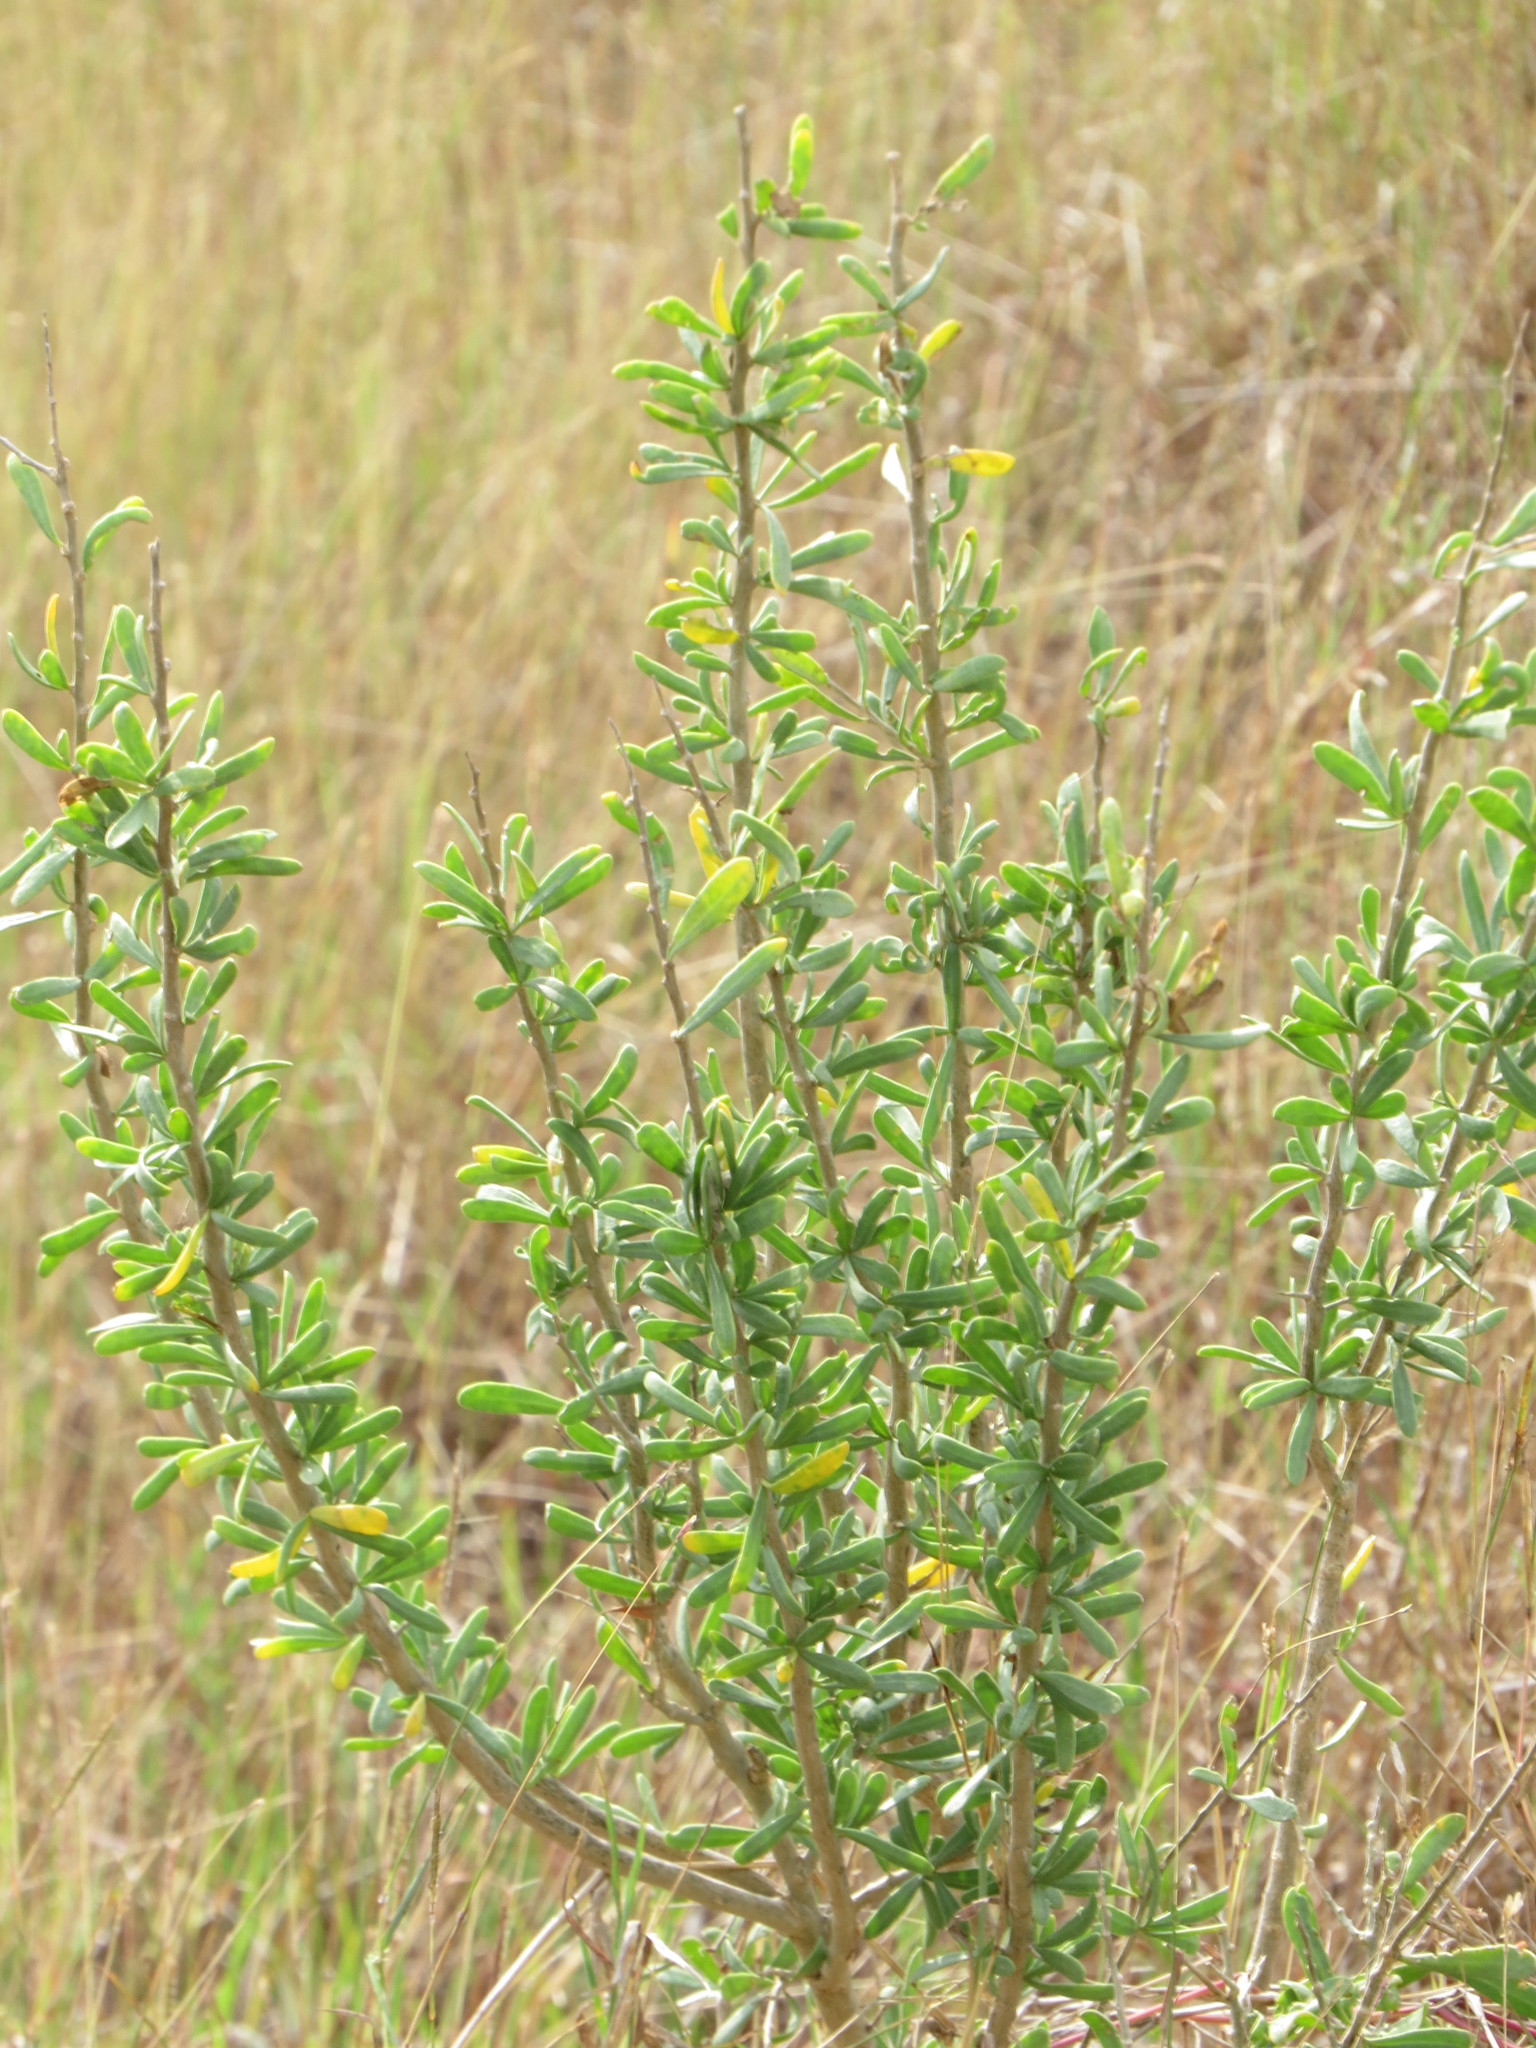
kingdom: Plantae
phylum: Tracheophyta
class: Magnoliopsida
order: Solanales
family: Solanaceae
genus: Lycium
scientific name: Lycium berlandieri
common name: Berlandier wolfberry
